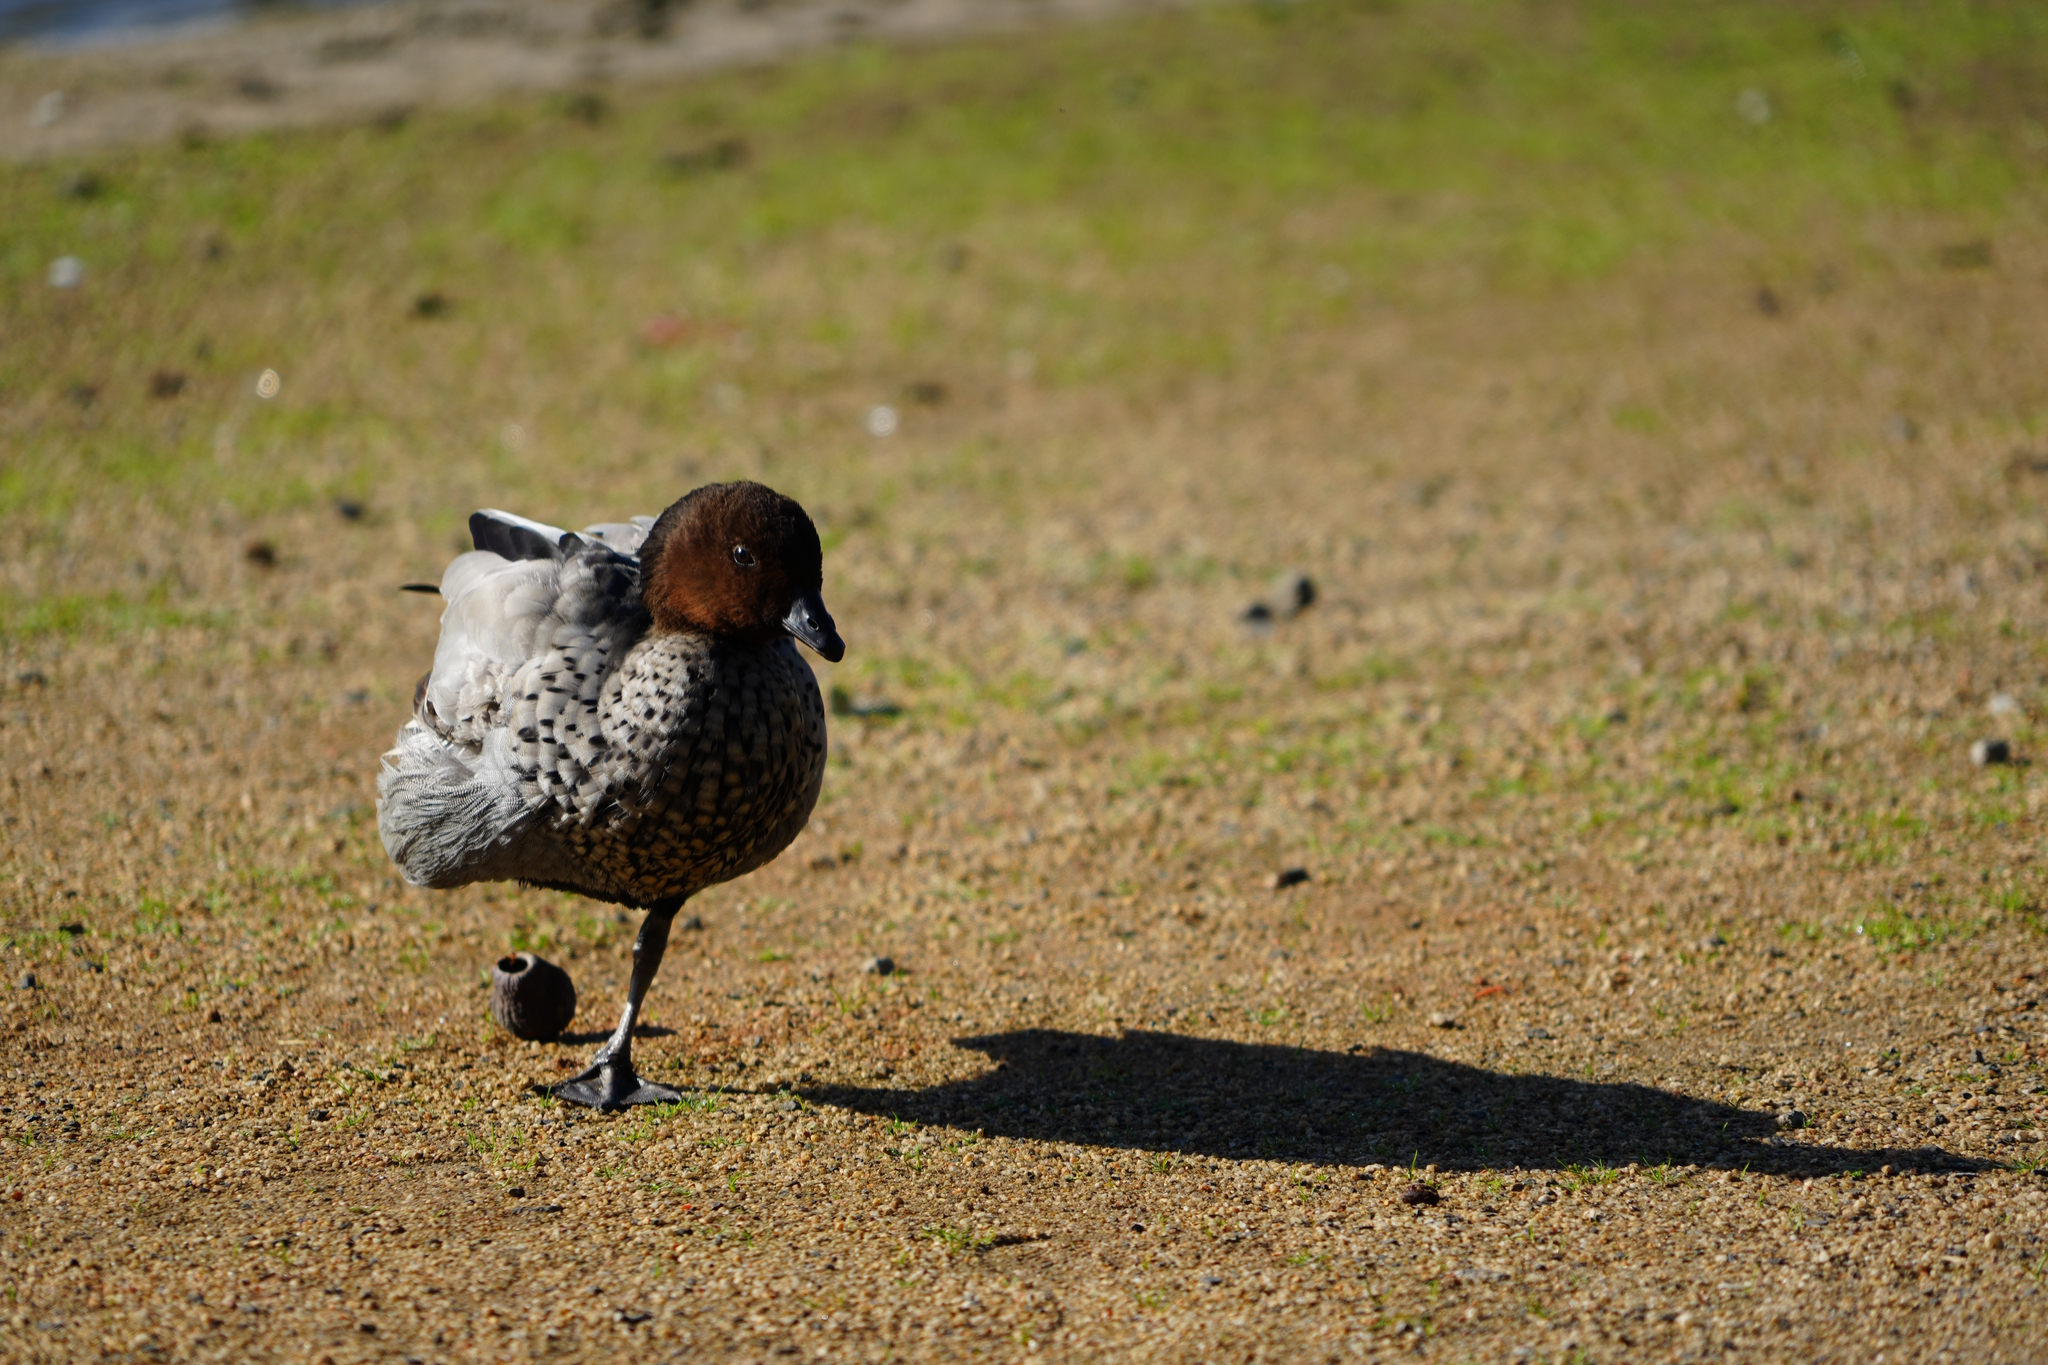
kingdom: Animalia
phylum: Chordata
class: Aves
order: Anseriformes
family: Anatidae
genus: Chenonetta
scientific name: Chenonetta jubata
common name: Maned duck
